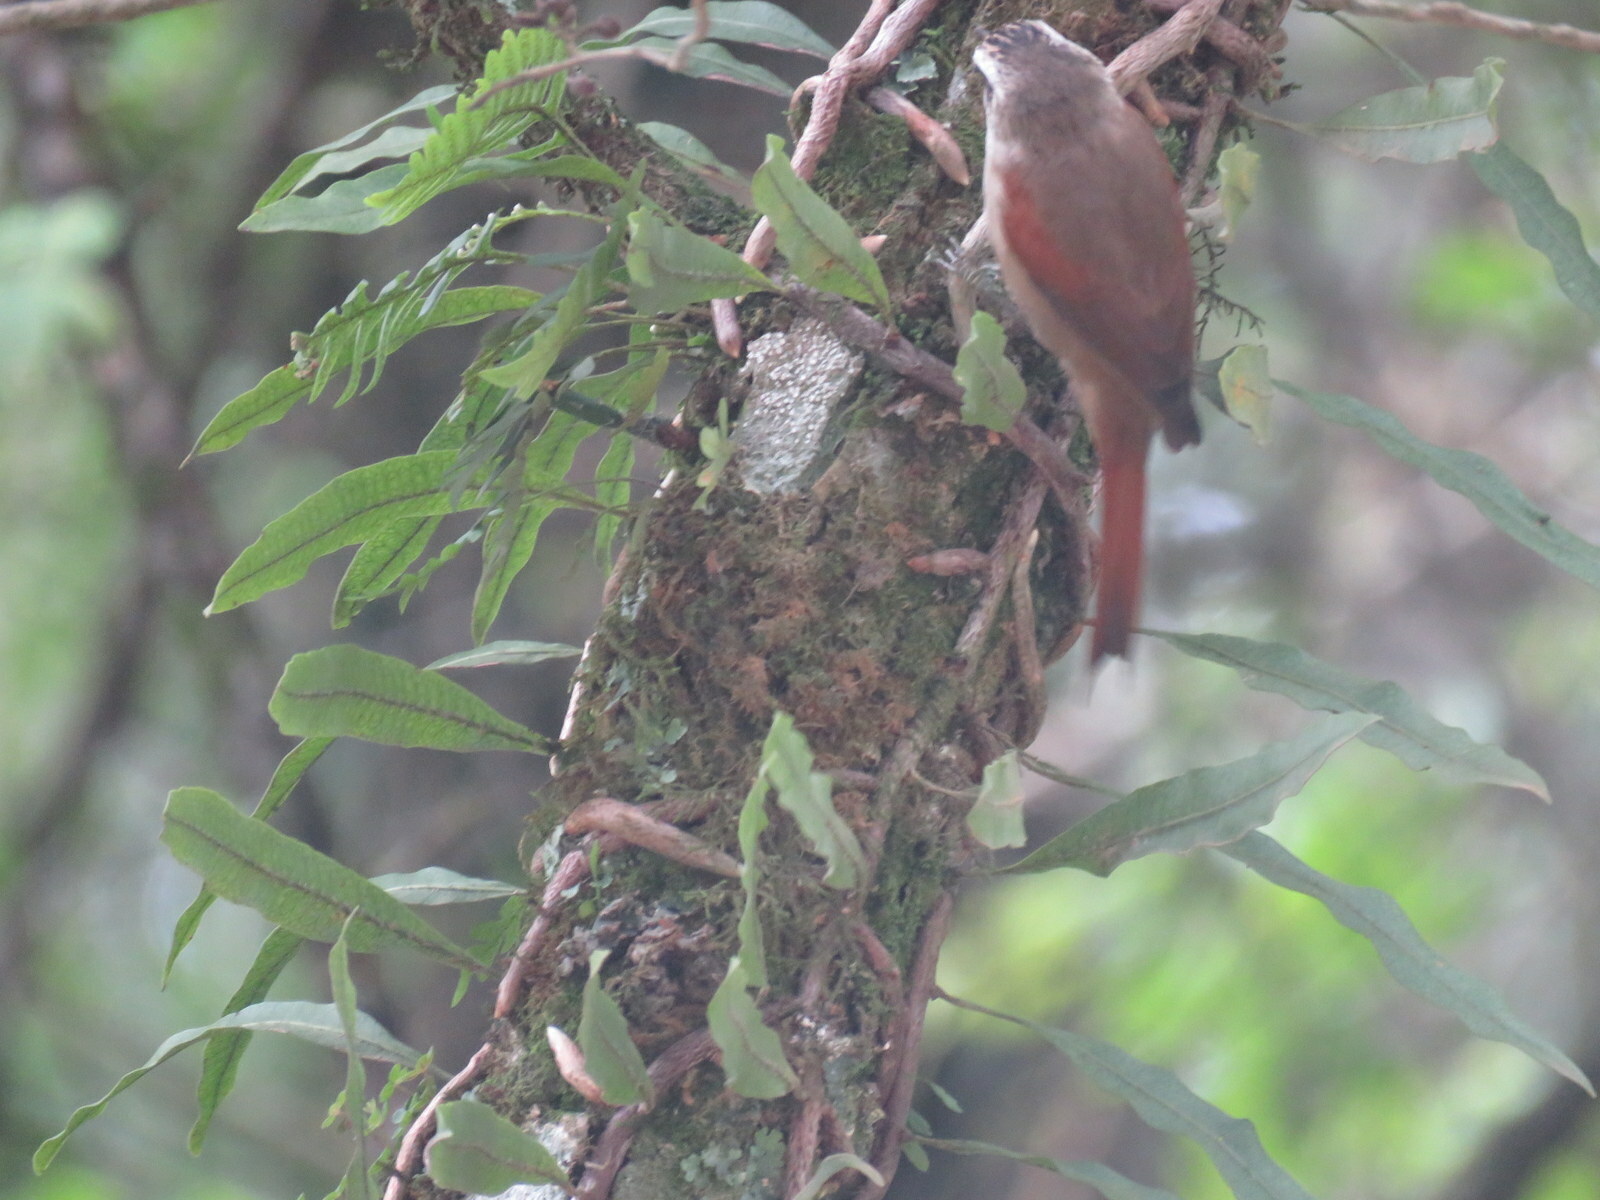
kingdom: Animalia
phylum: Chordata
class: Aves
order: Passeriformes
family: Furnariidae
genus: Cranioleuca
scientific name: Cranioleuca pyrrhophia
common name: Stripe-crowned spinetail
